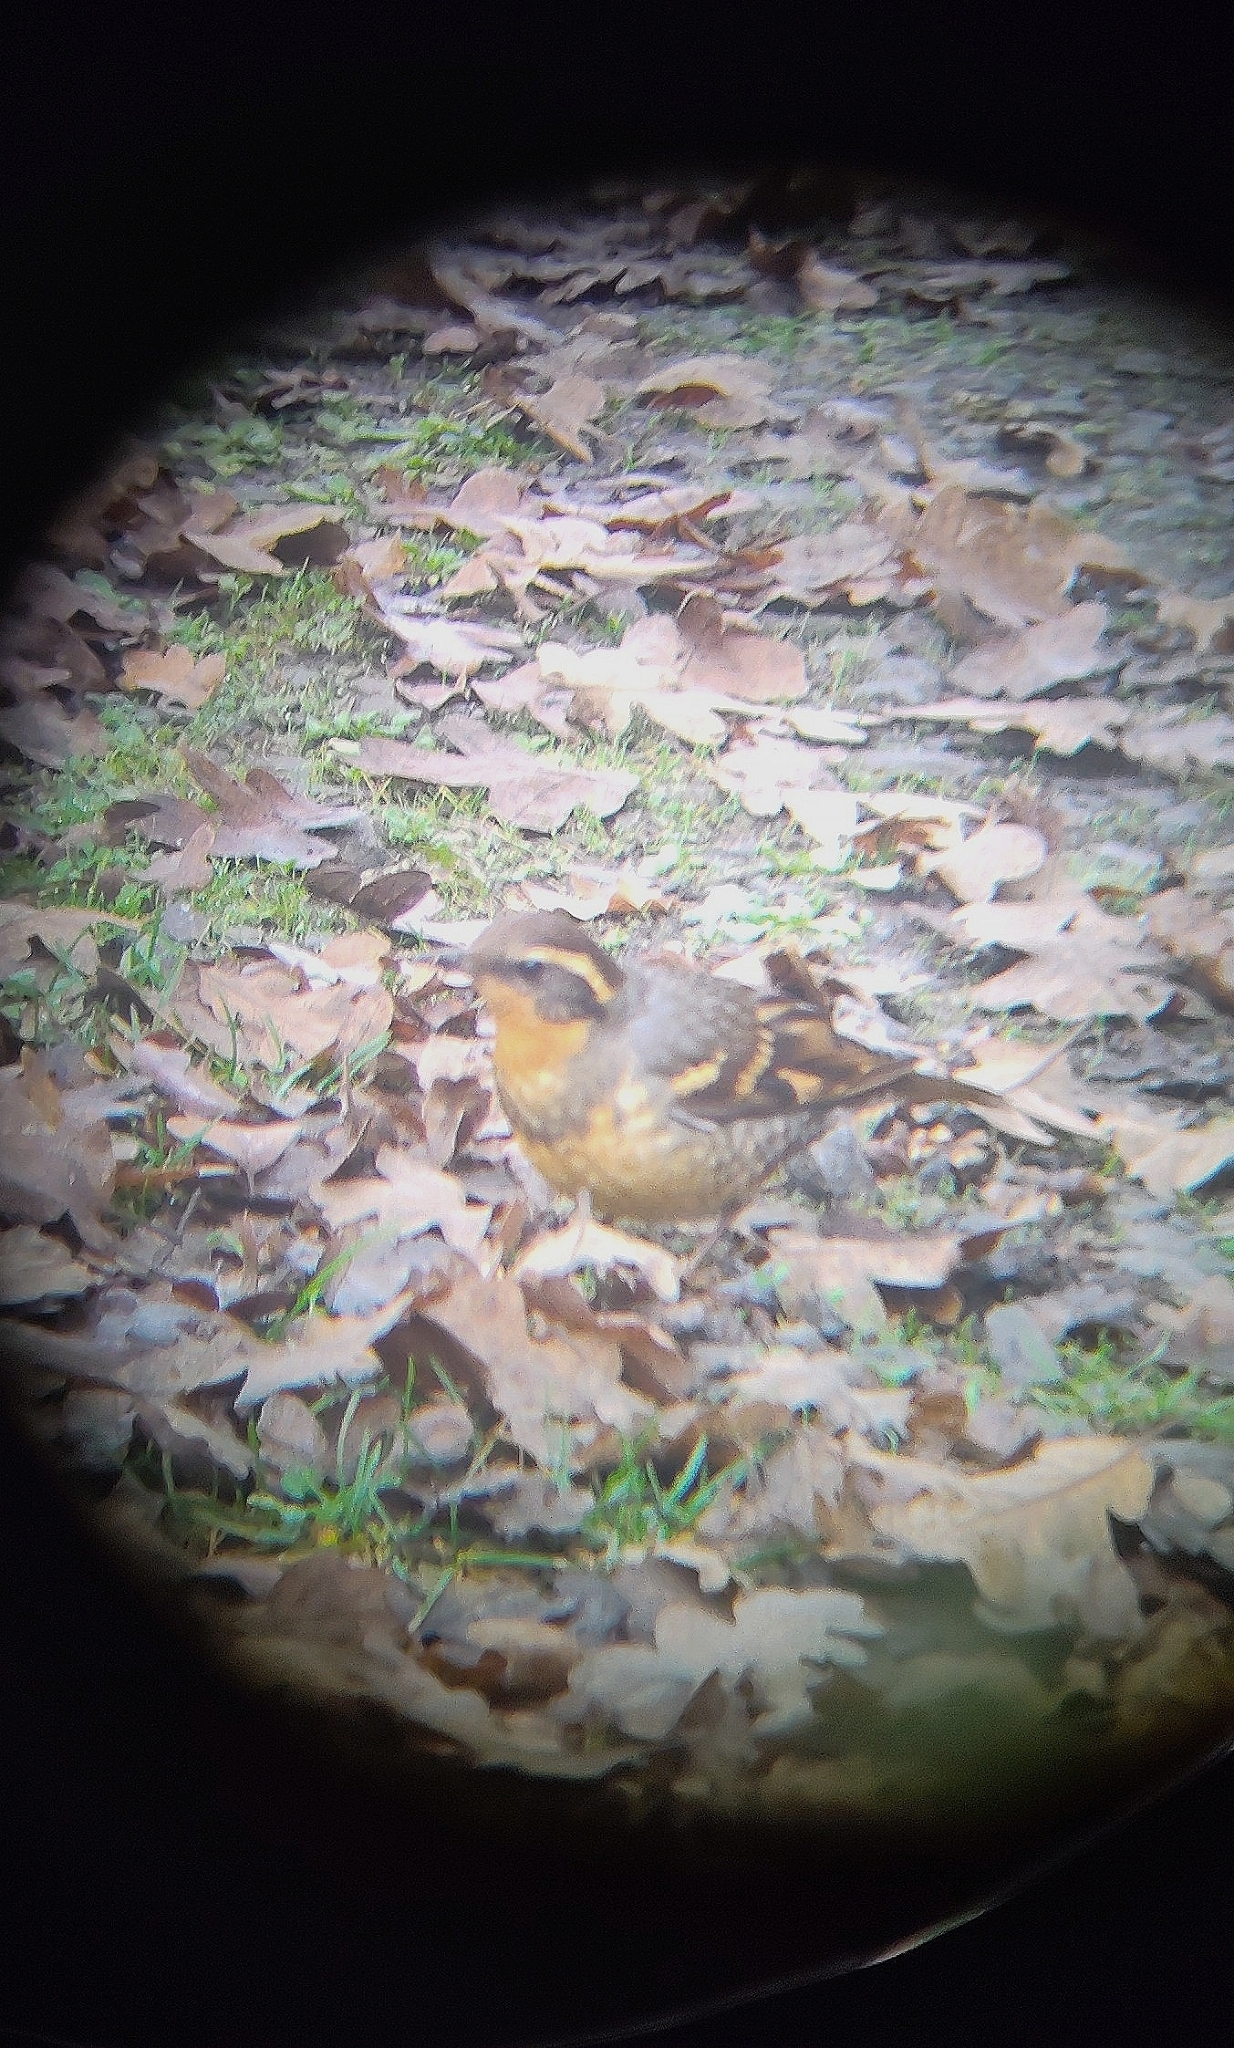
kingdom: Animalia
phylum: Chordata
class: Aves
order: Passeriformes
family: Turdidae
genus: Ixoreus
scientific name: Ixoreus naevius
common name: Varied thrush
